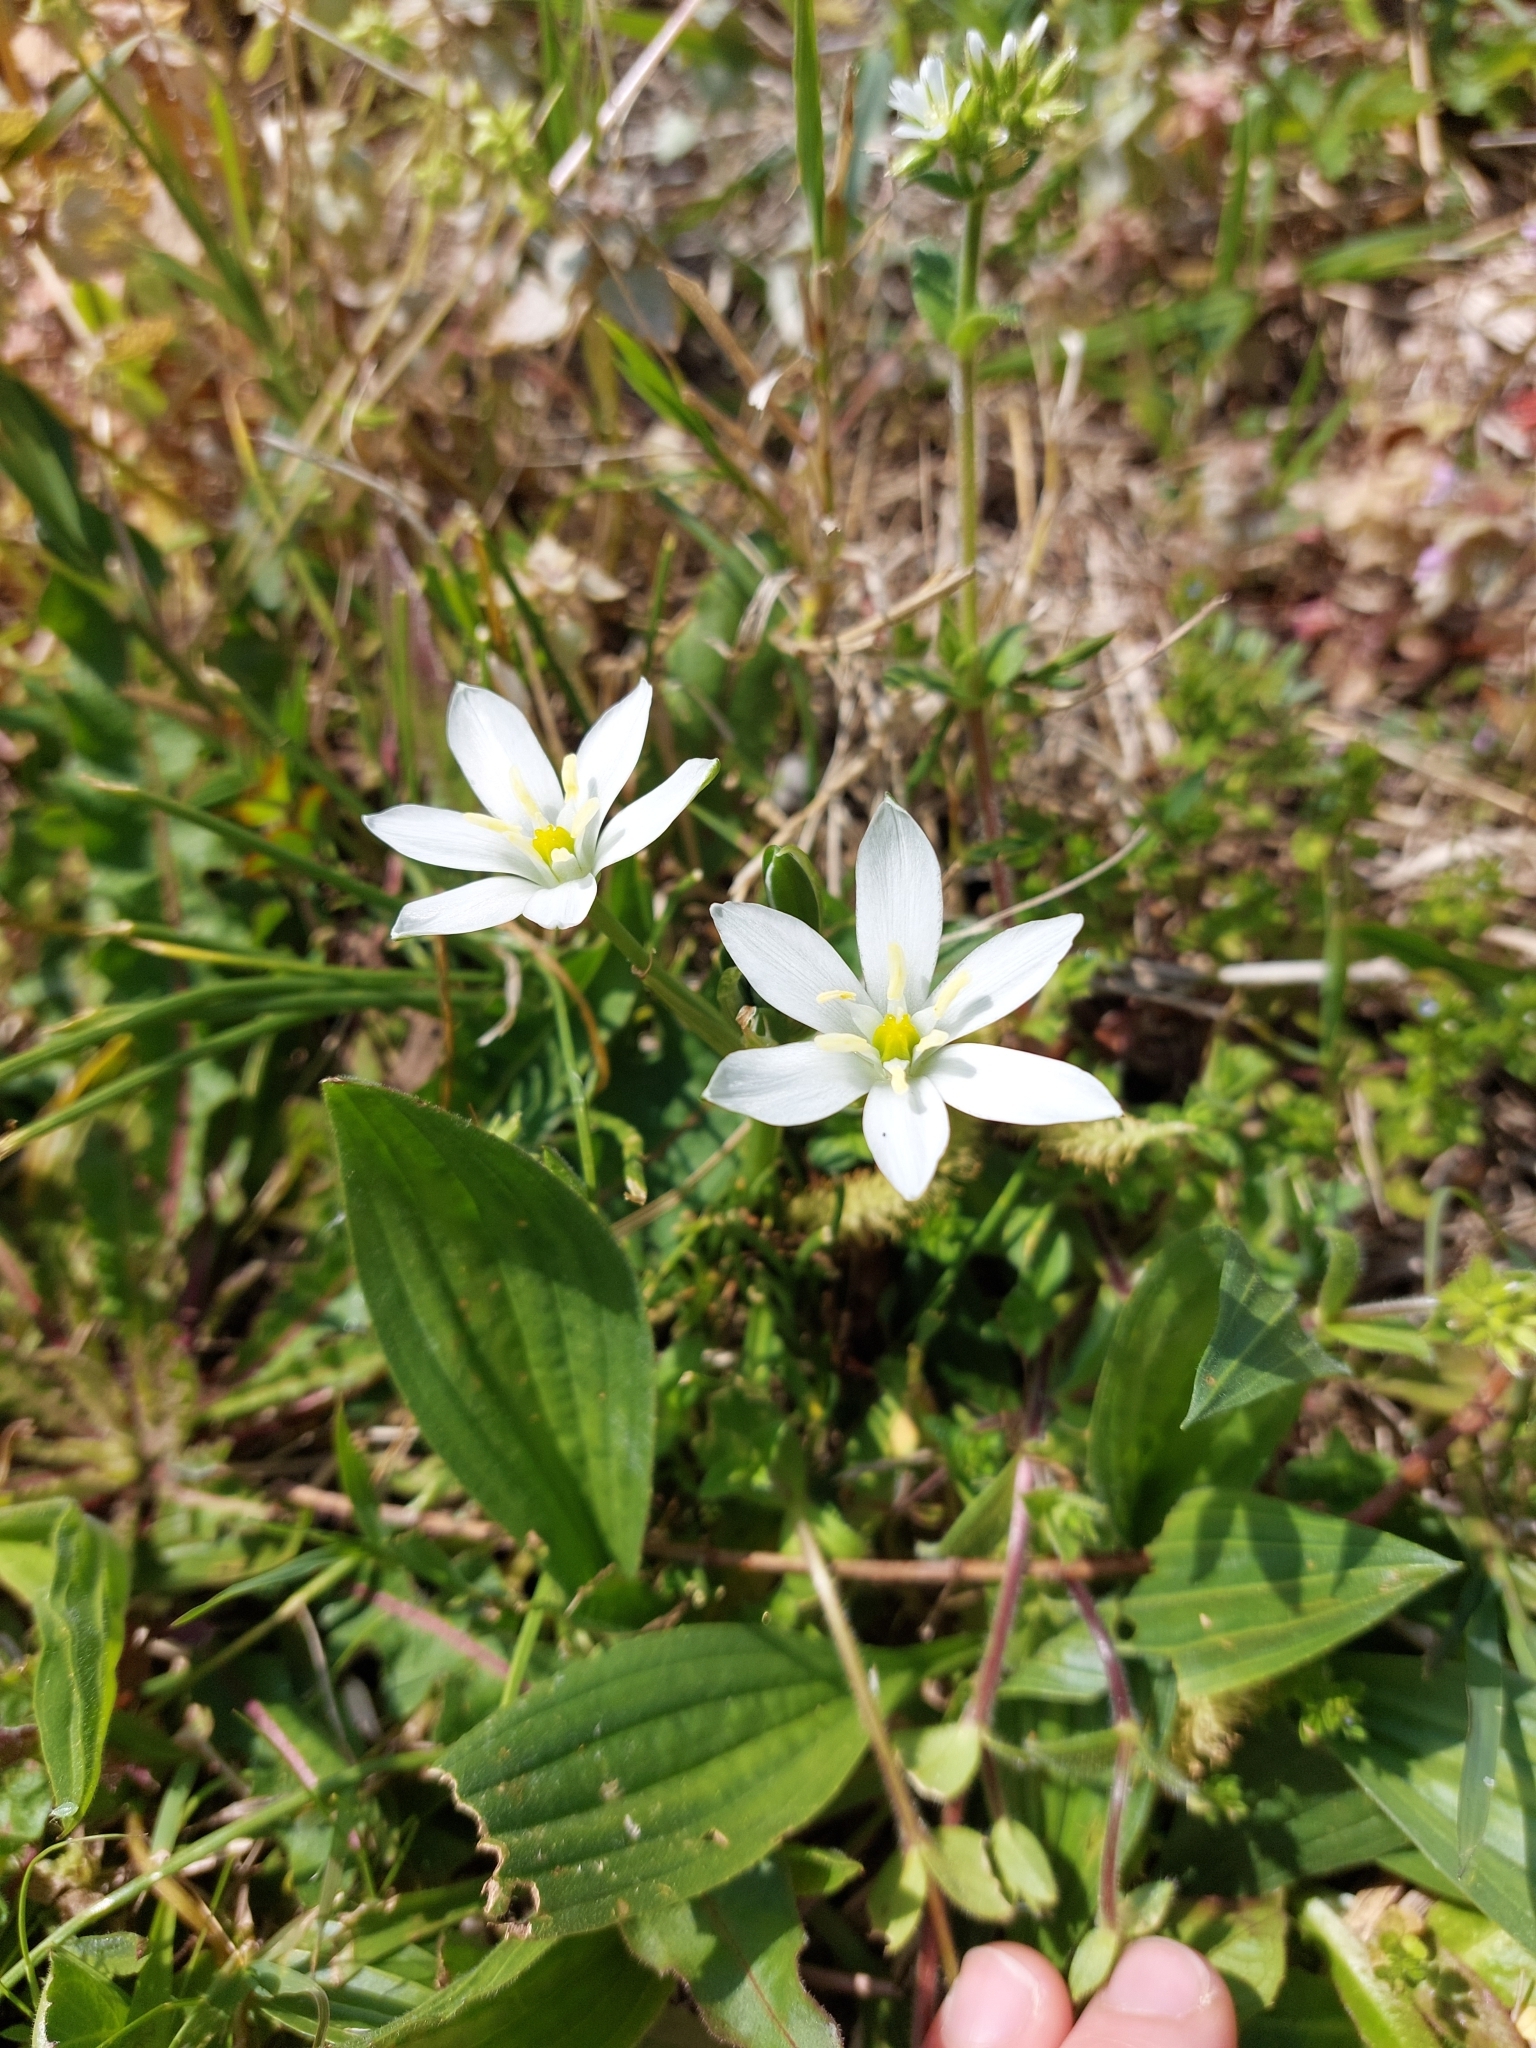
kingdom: Plantae
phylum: Tracheophyta
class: Liliopsida
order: Asparagales
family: Asparagaceae
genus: Ornithogalum
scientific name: Ornithogalum divergens
